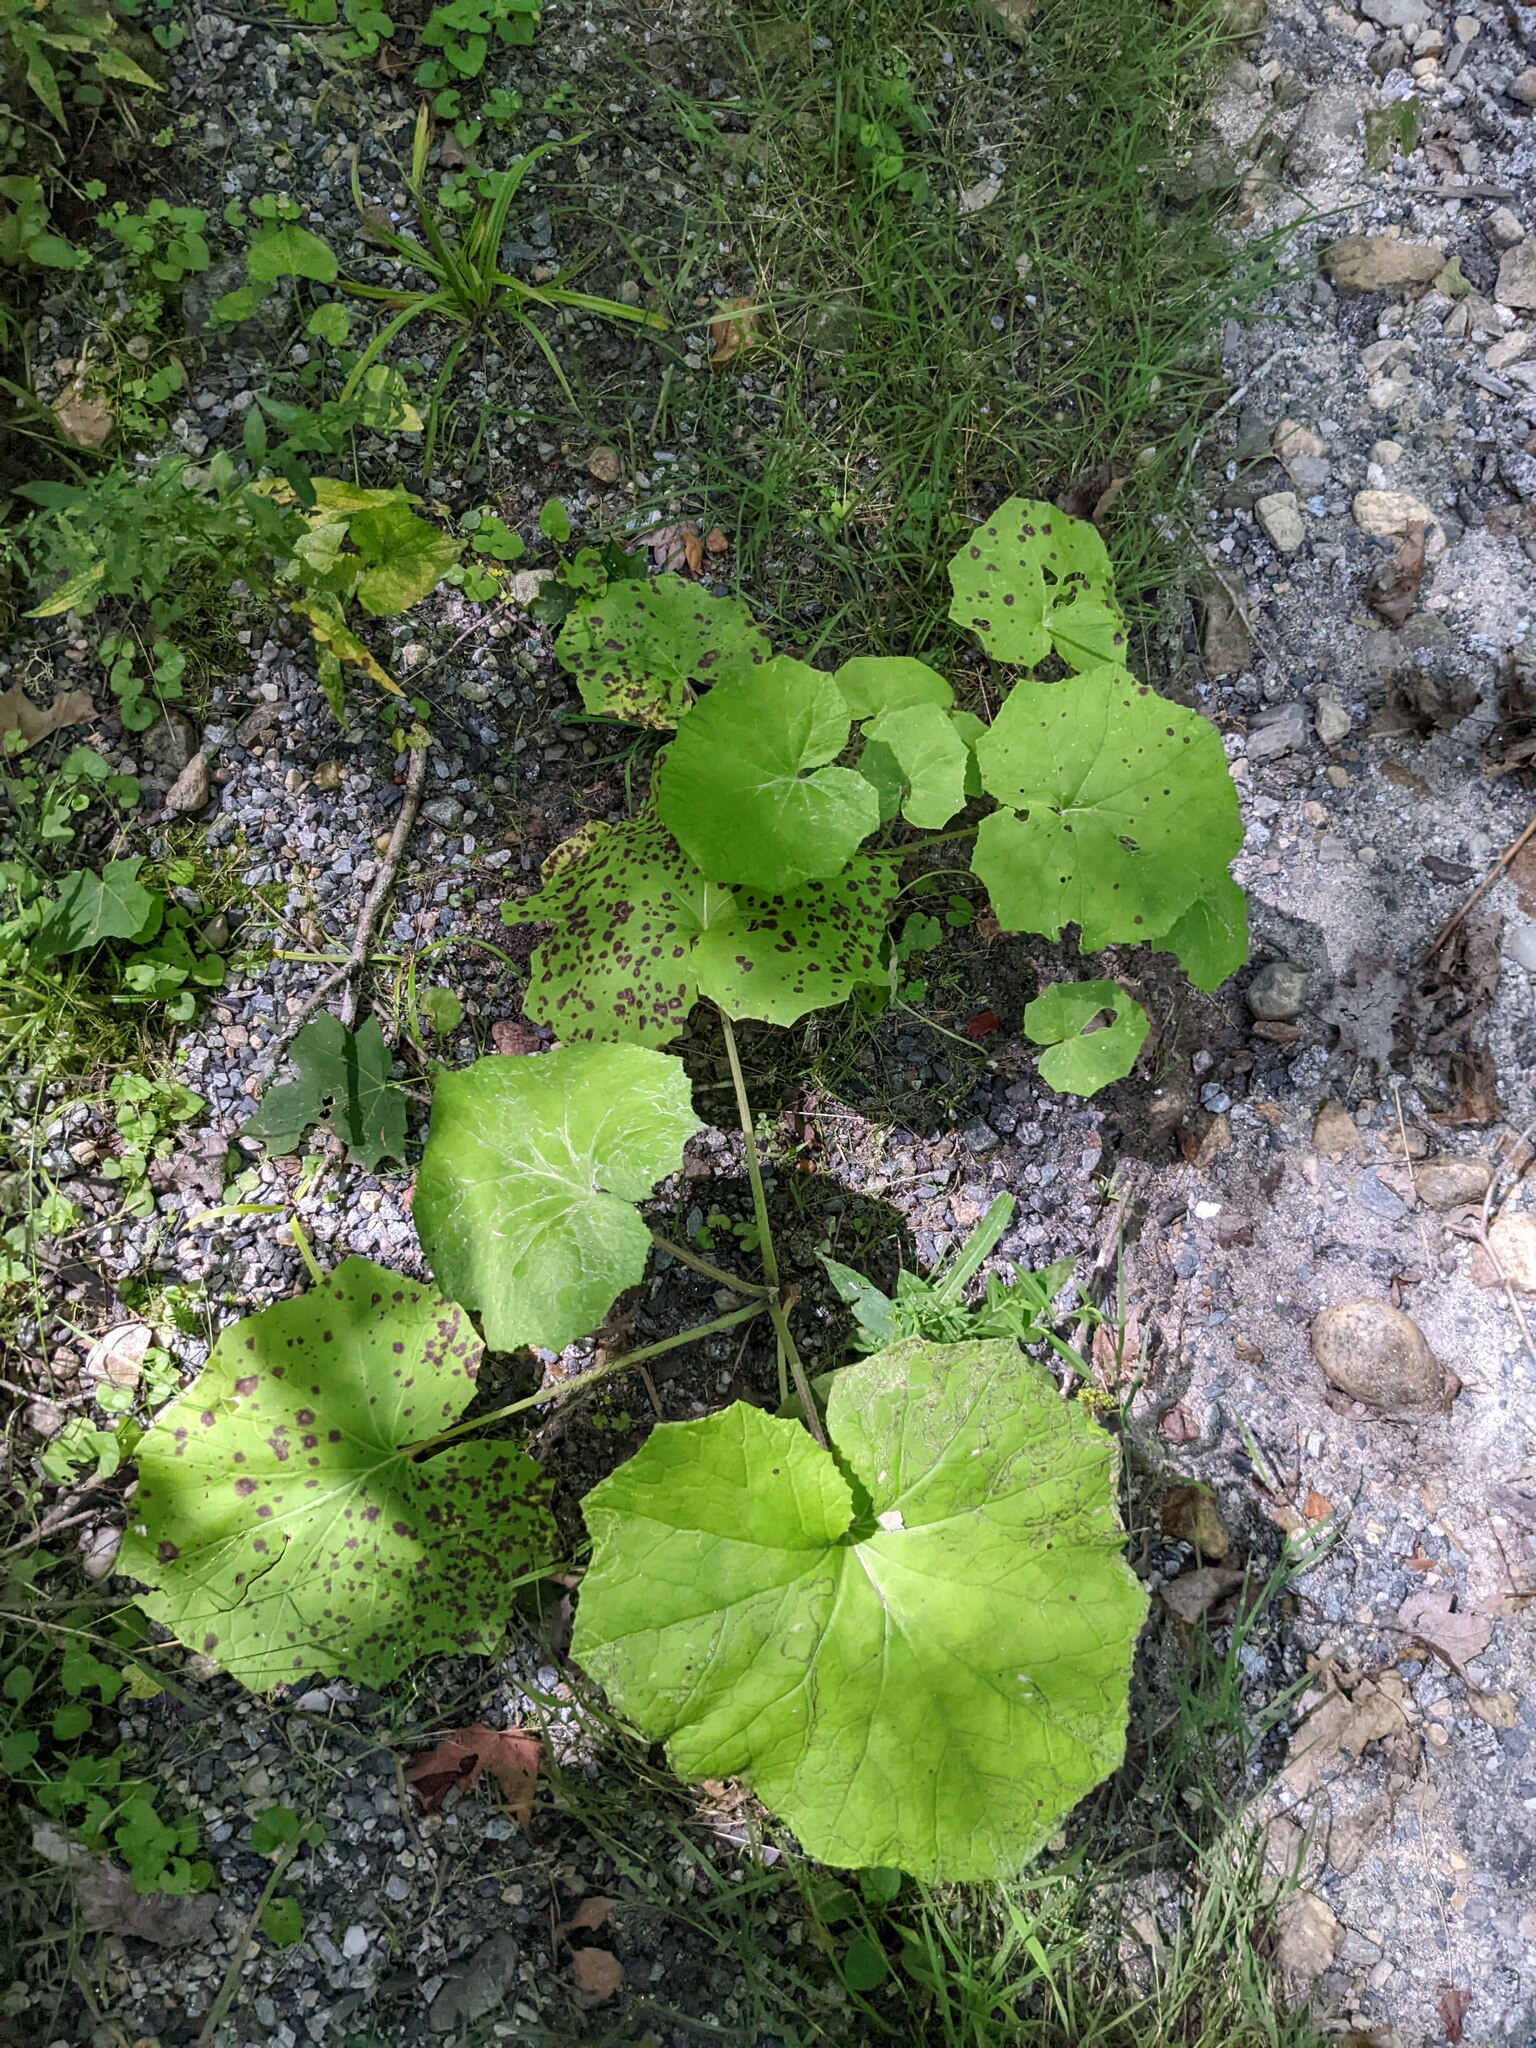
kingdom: Plantae
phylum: Tracheophyta
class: Magnoliopsida
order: Asterales
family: Asteraceae
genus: Tussilago
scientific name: Tussilago farfara
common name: Coltsfoot
